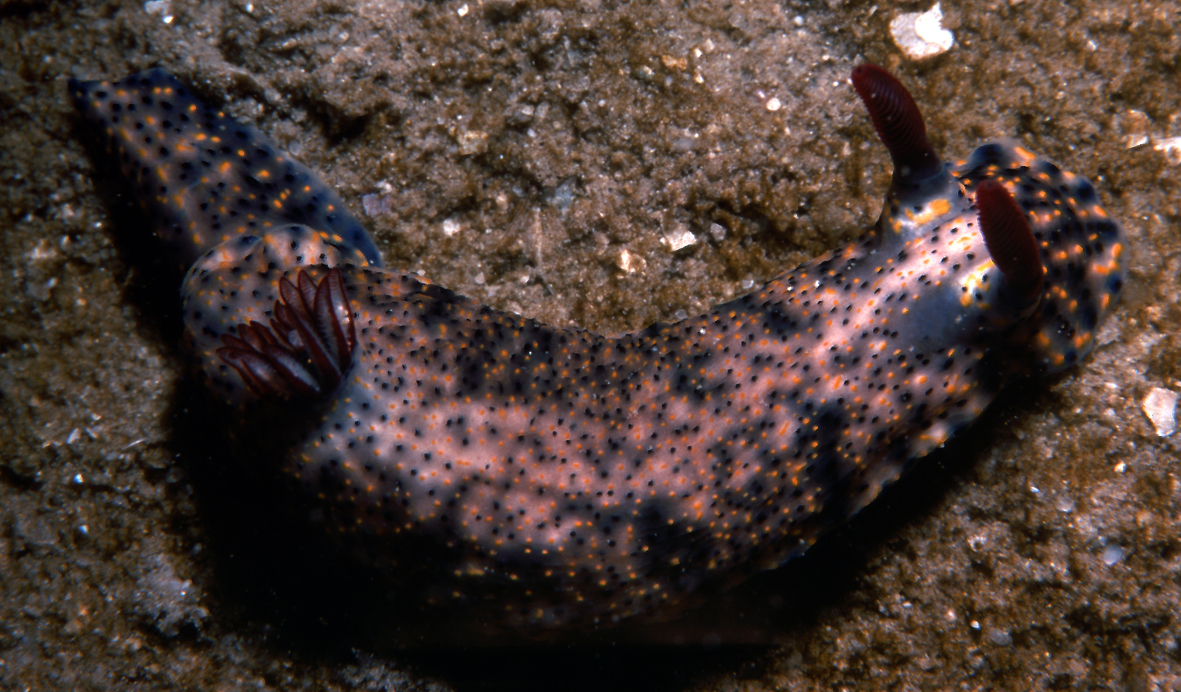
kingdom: Animalia
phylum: Mollusca
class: Gastropoda
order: Nudibranchia
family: Chromodorididae
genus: Hypselodoris
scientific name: Hypselodoris obscura
